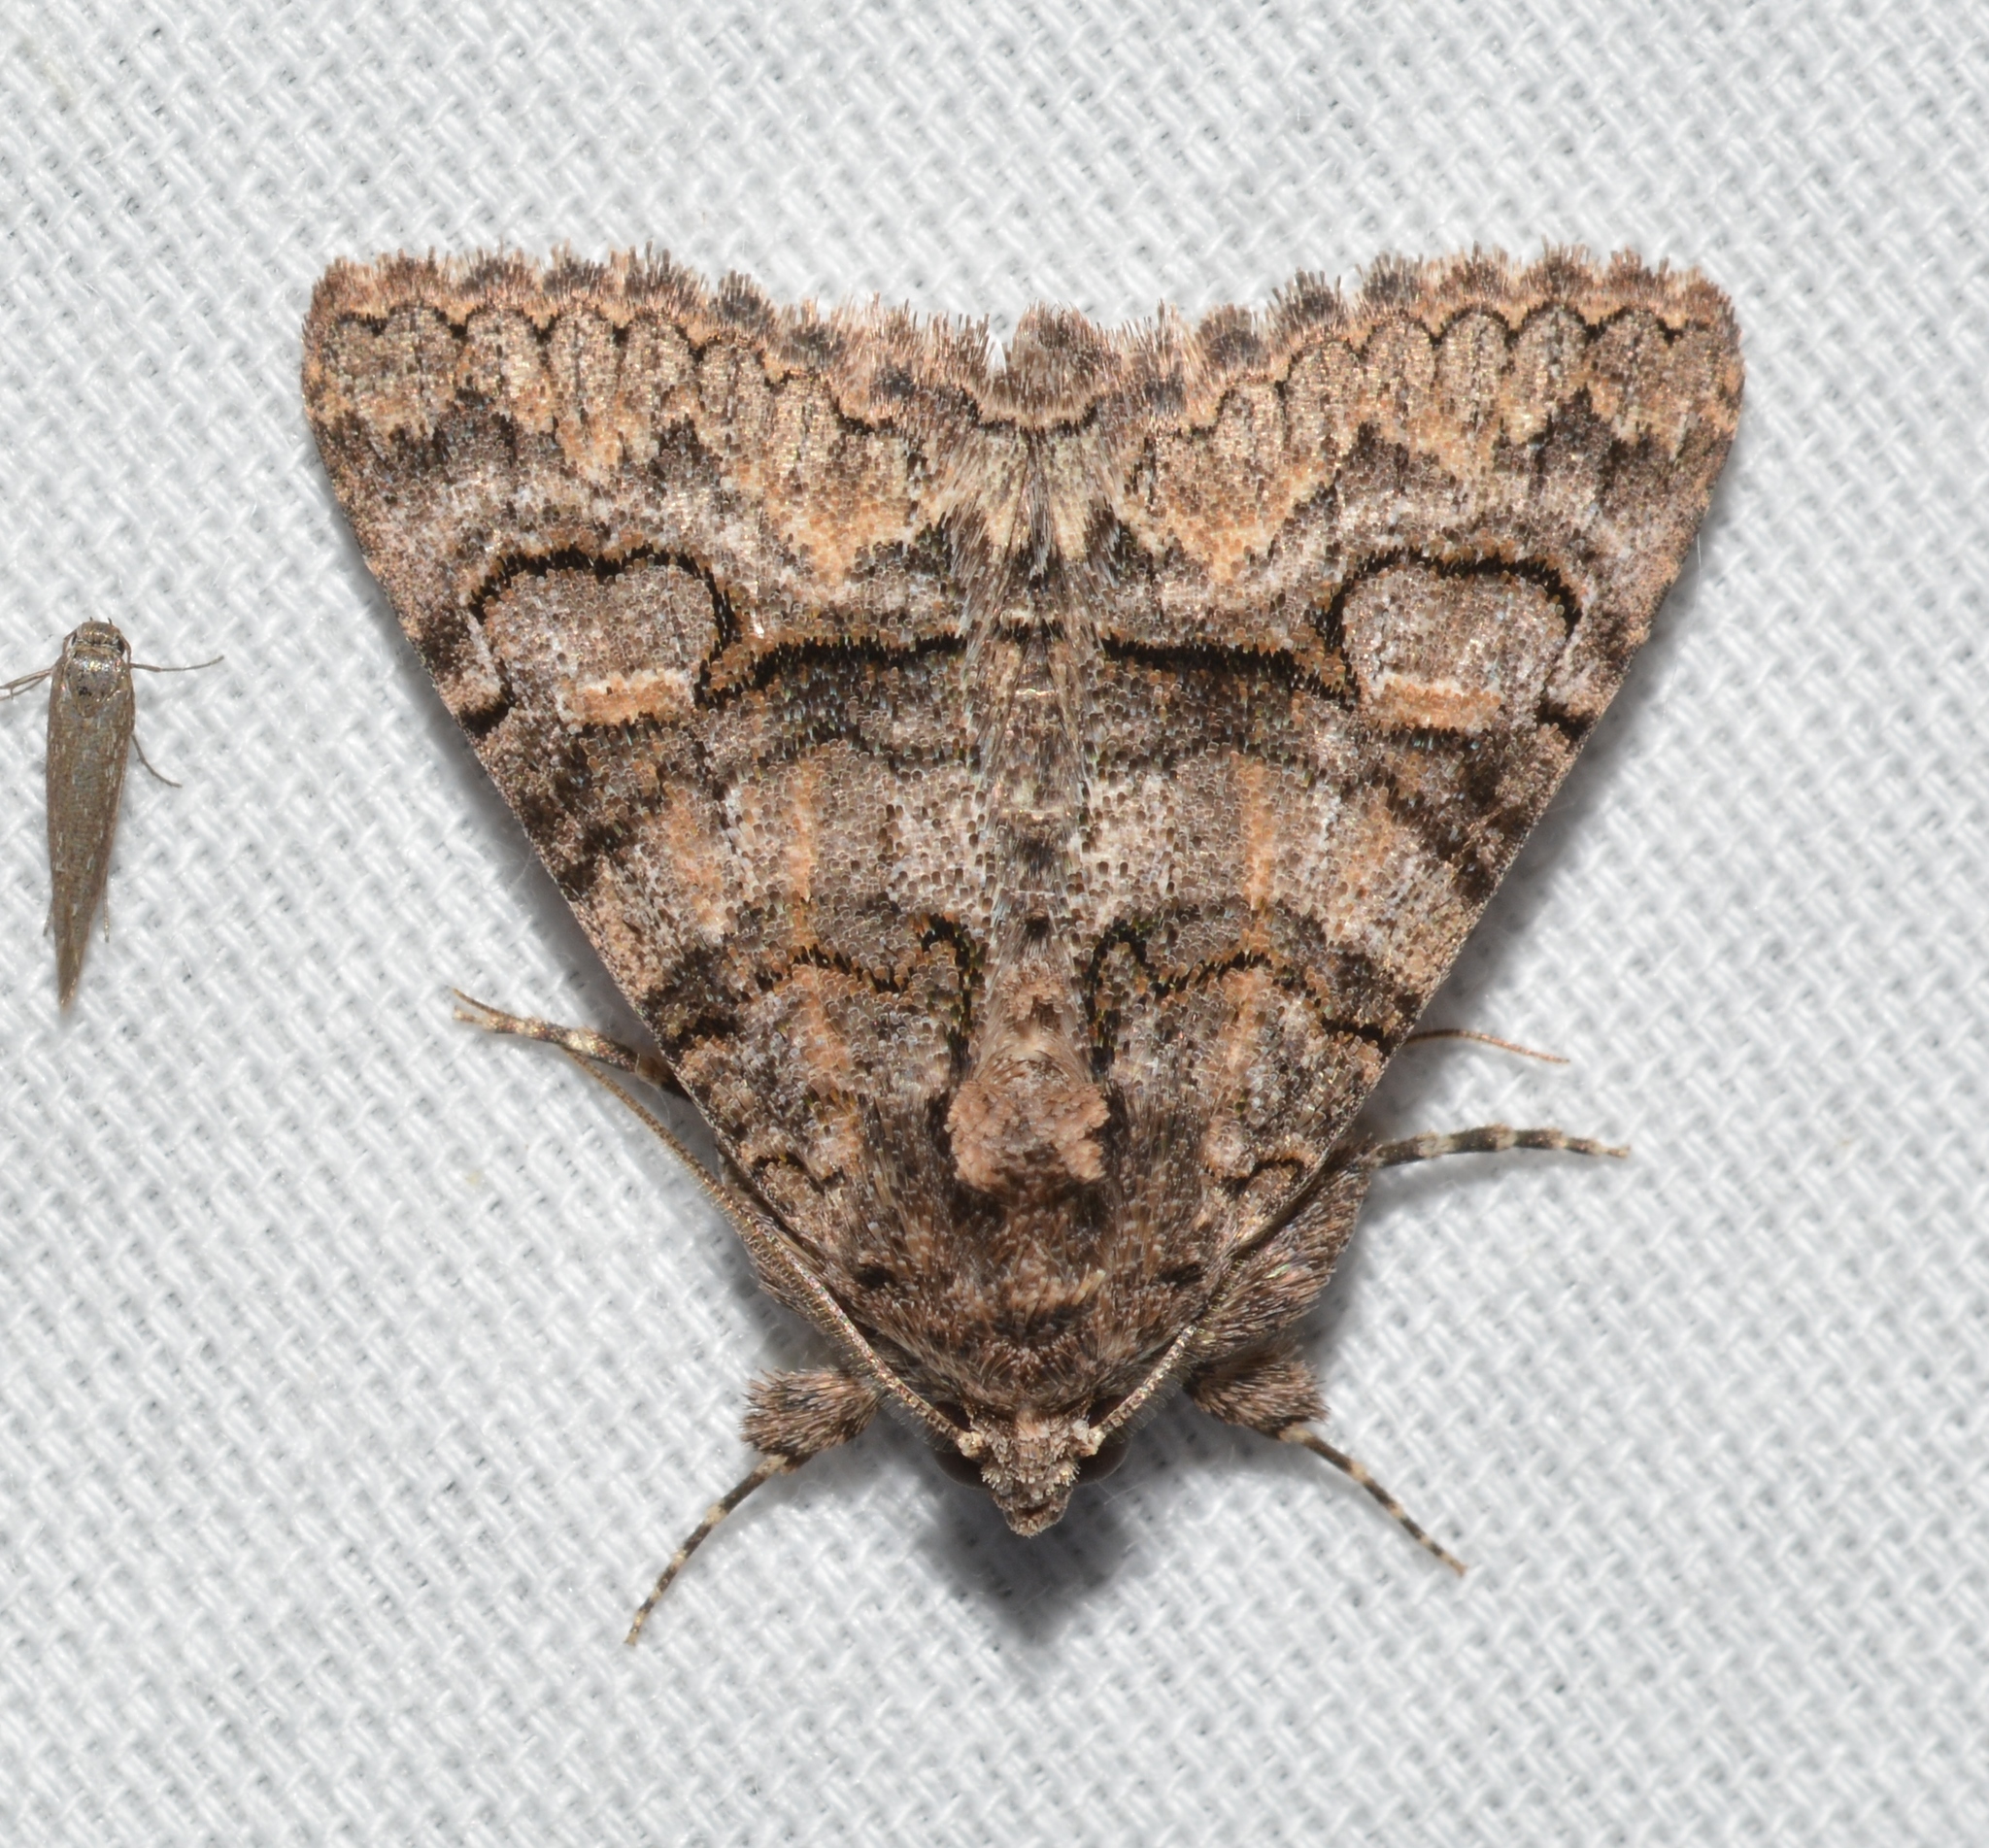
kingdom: Animalia
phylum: Arthropoda
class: Insecta
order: Lepidoptera
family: Erebidae
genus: Elousa
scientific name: Elousa mima
